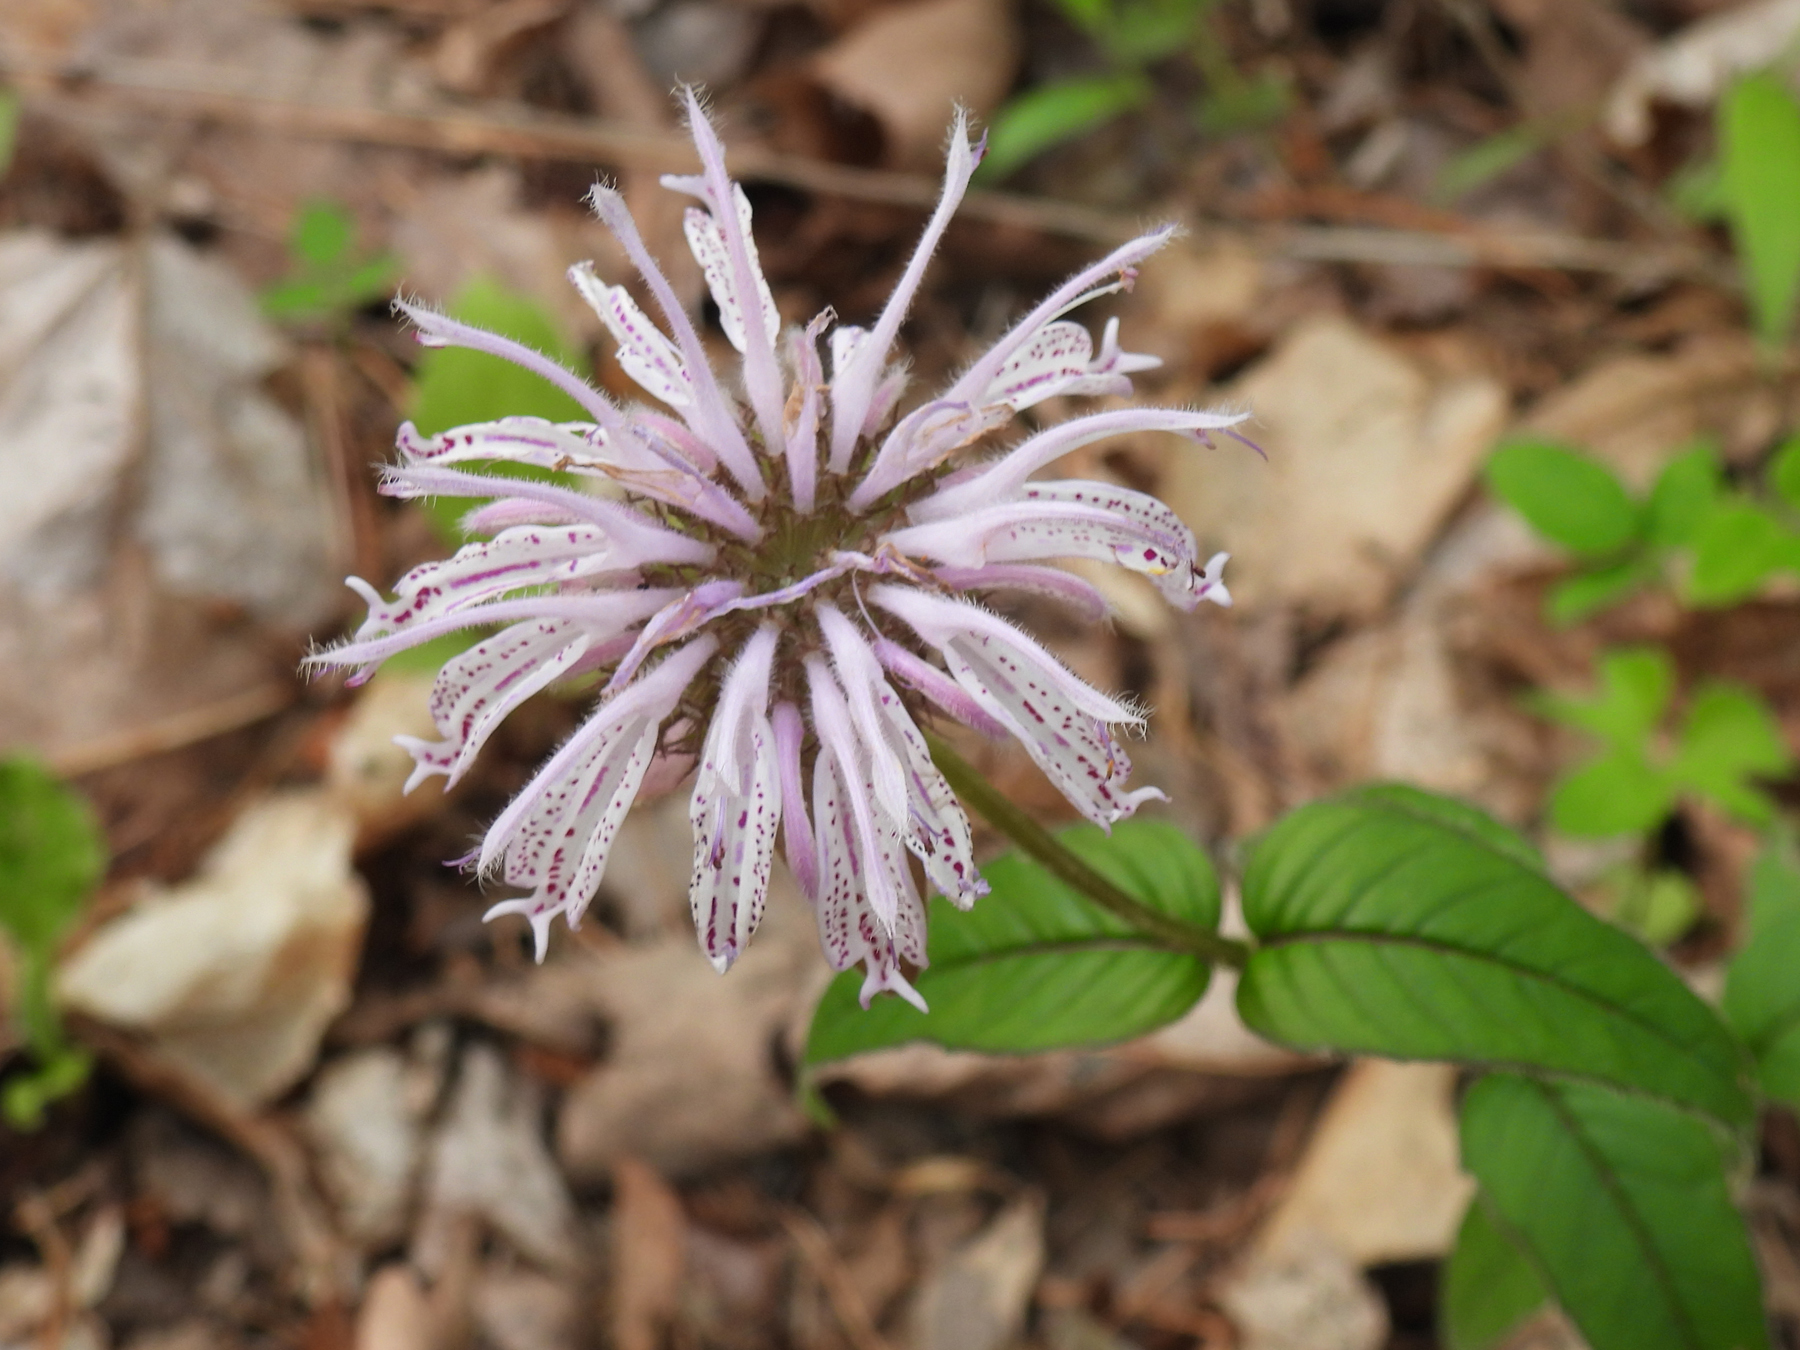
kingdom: Plantae
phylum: Tracheophyta
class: Magnoliopsida
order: Lamiales
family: Lamiaceae
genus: Monarda
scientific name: Monarda bradburiana
